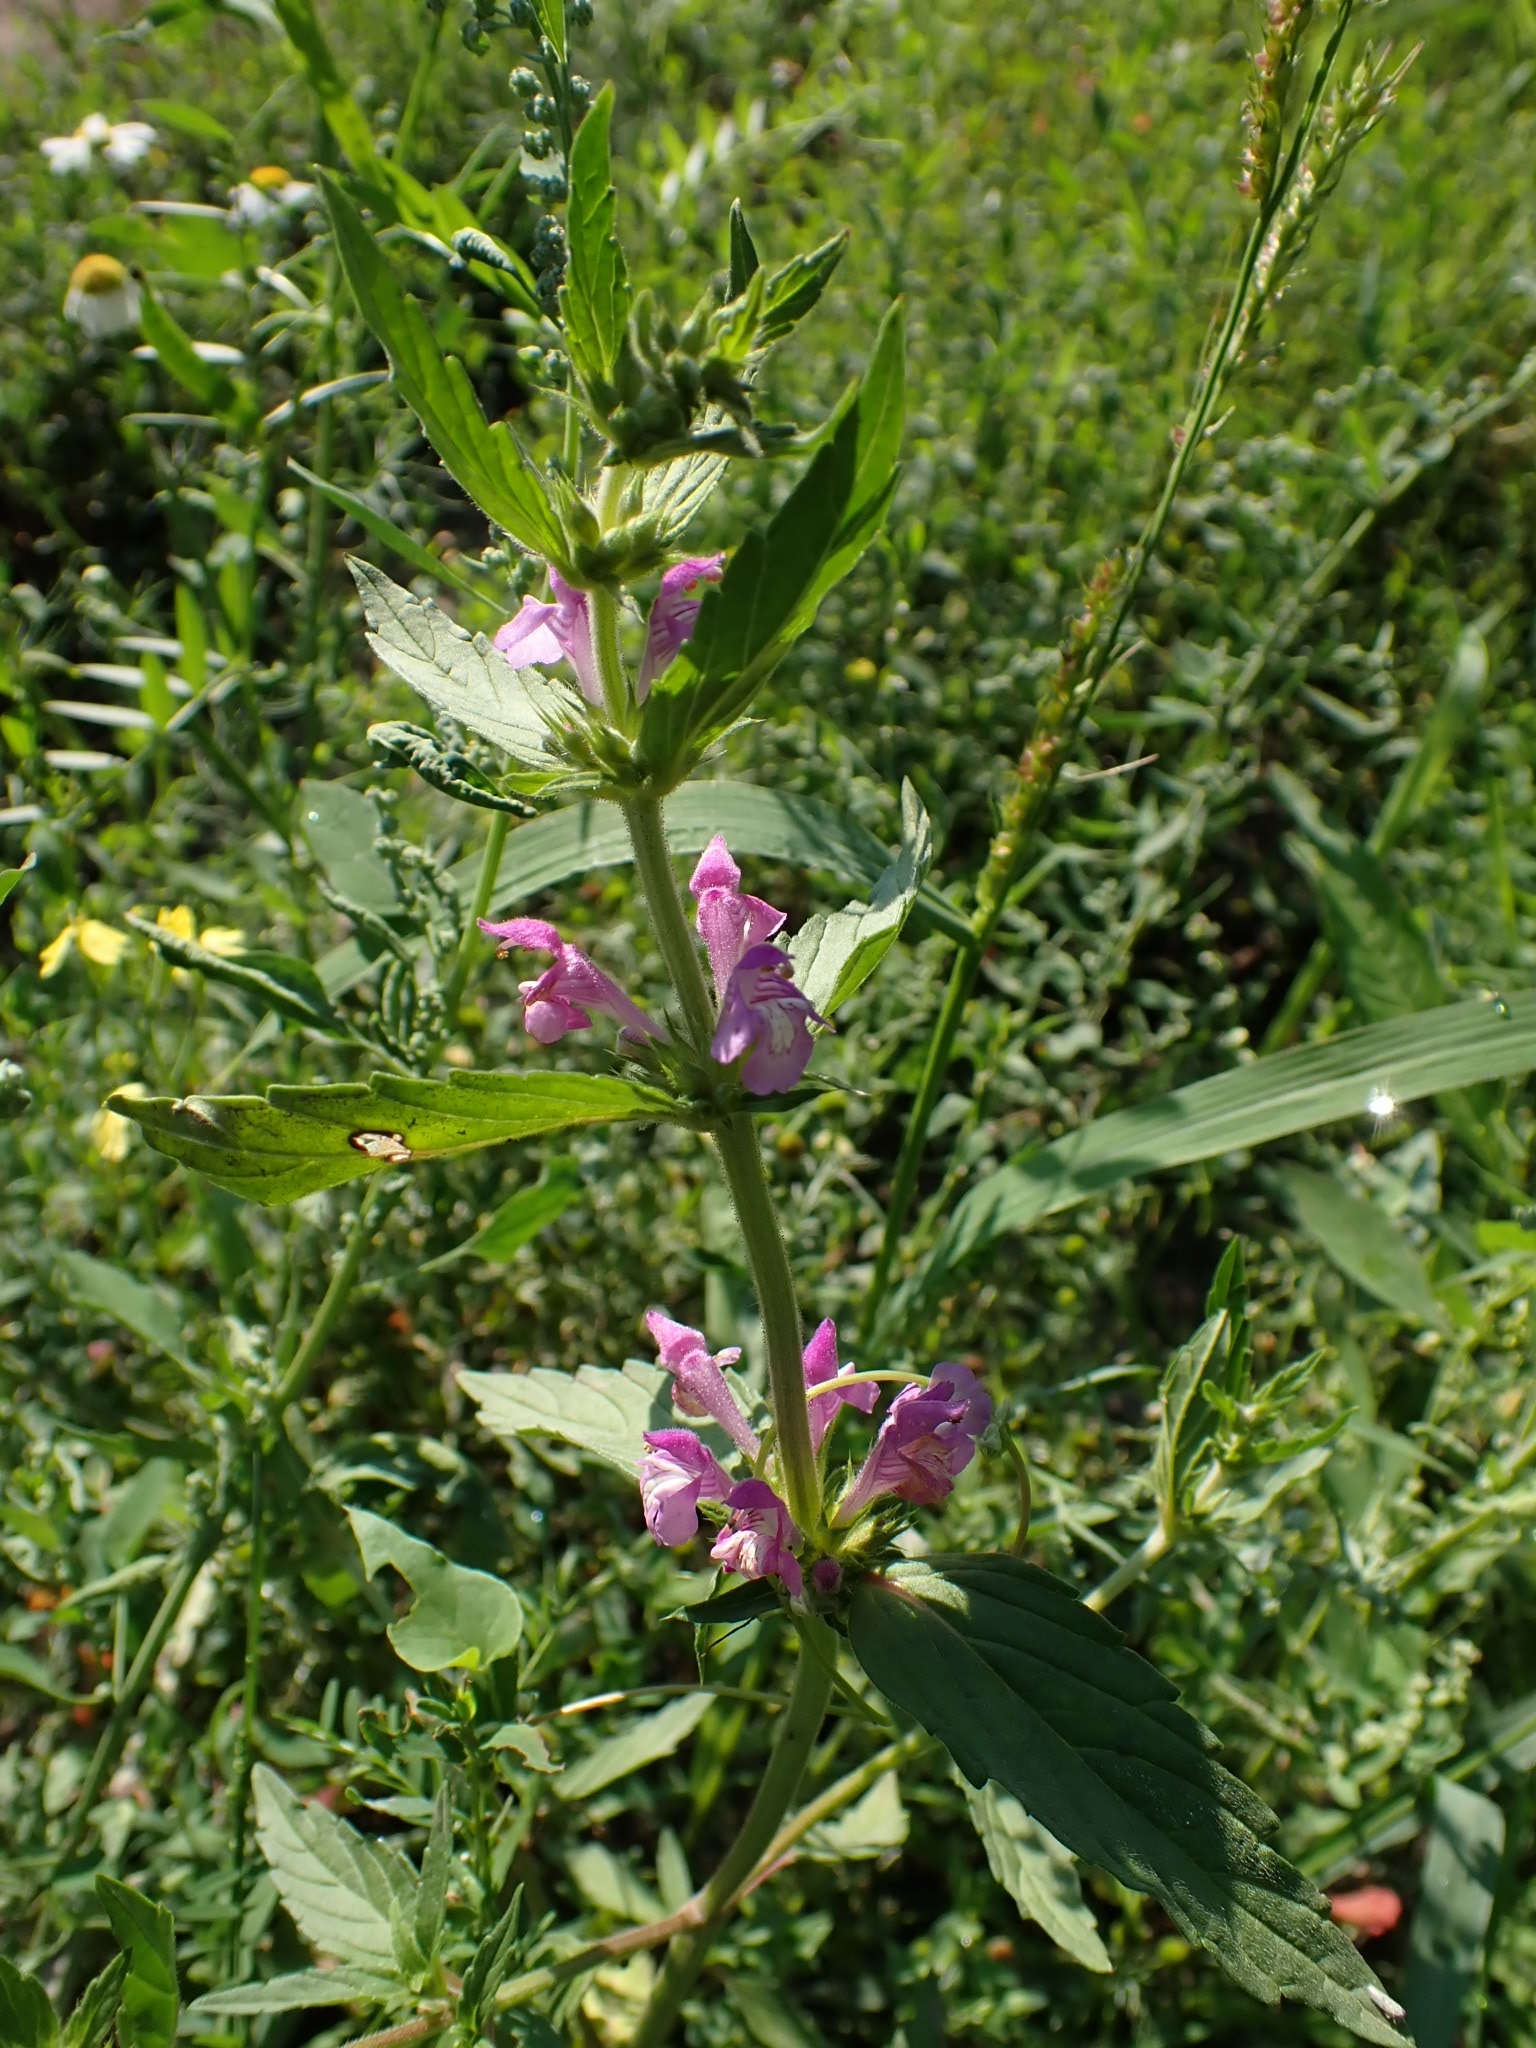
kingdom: Plantae
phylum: Tracheophyta
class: Magnoliopsida
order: Lamiales
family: Lamiaceae
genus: Galeopsis
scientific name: Galeopsis ladanum
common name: Broad-leaved hemp-nettle
